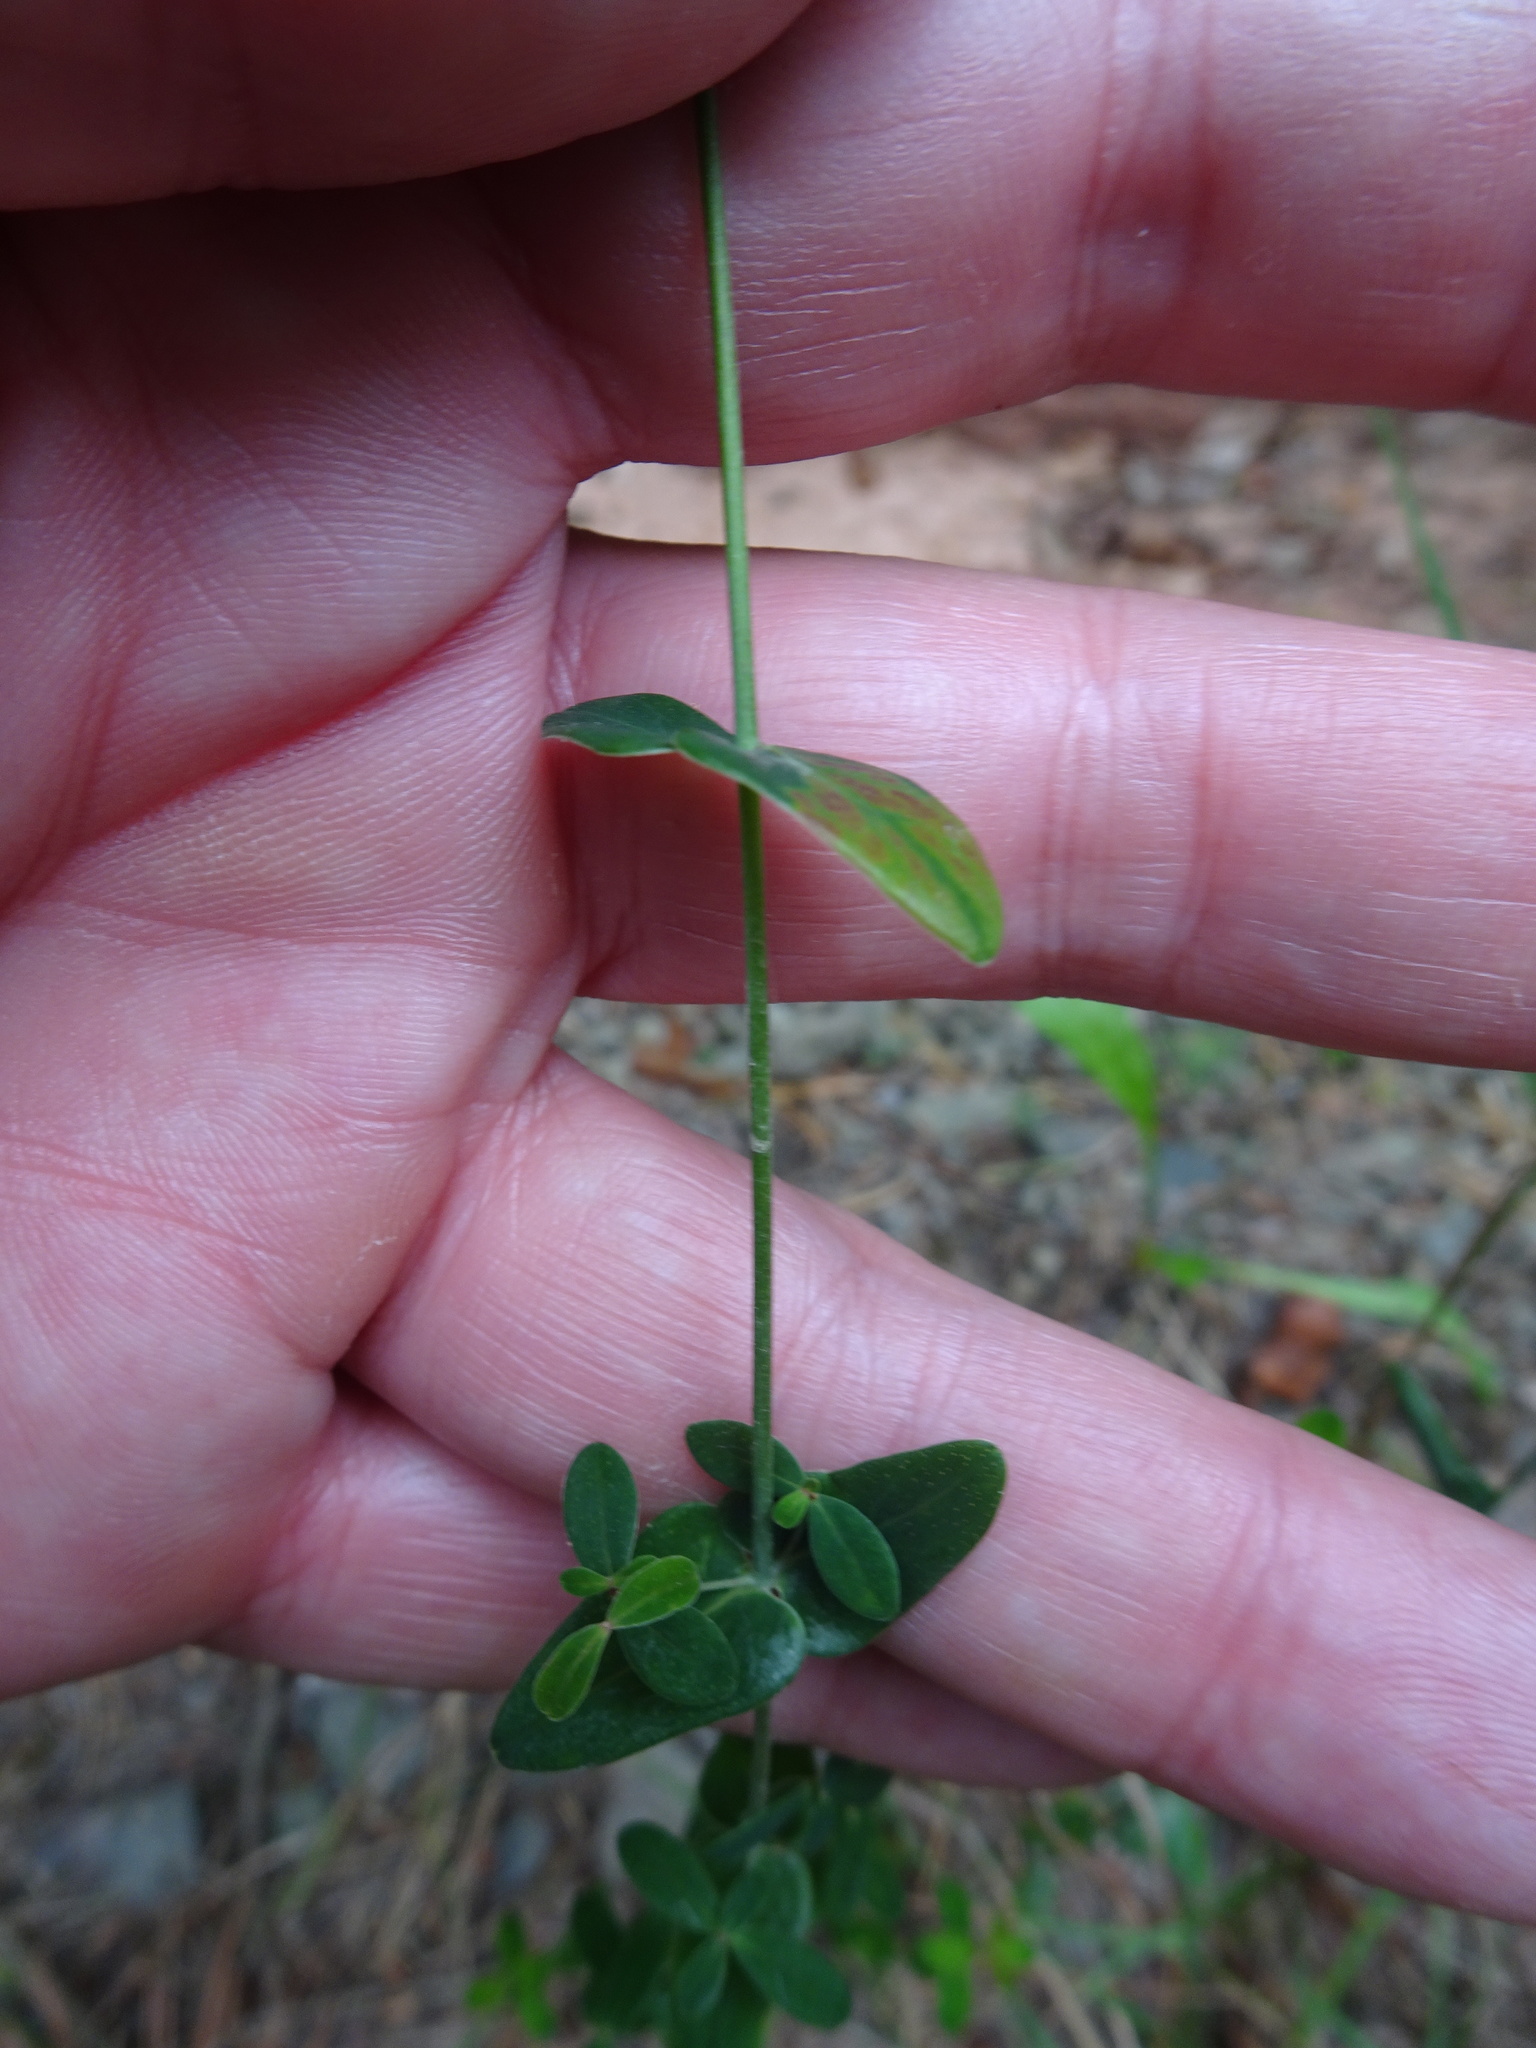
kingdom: Plantae
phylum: Tracheophyta
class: Magnoliopsida
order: Malpighiales
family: Hypericaceae
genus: Hypericum
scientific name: Hypericum pulchrum
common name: Slender st. john's-wort
